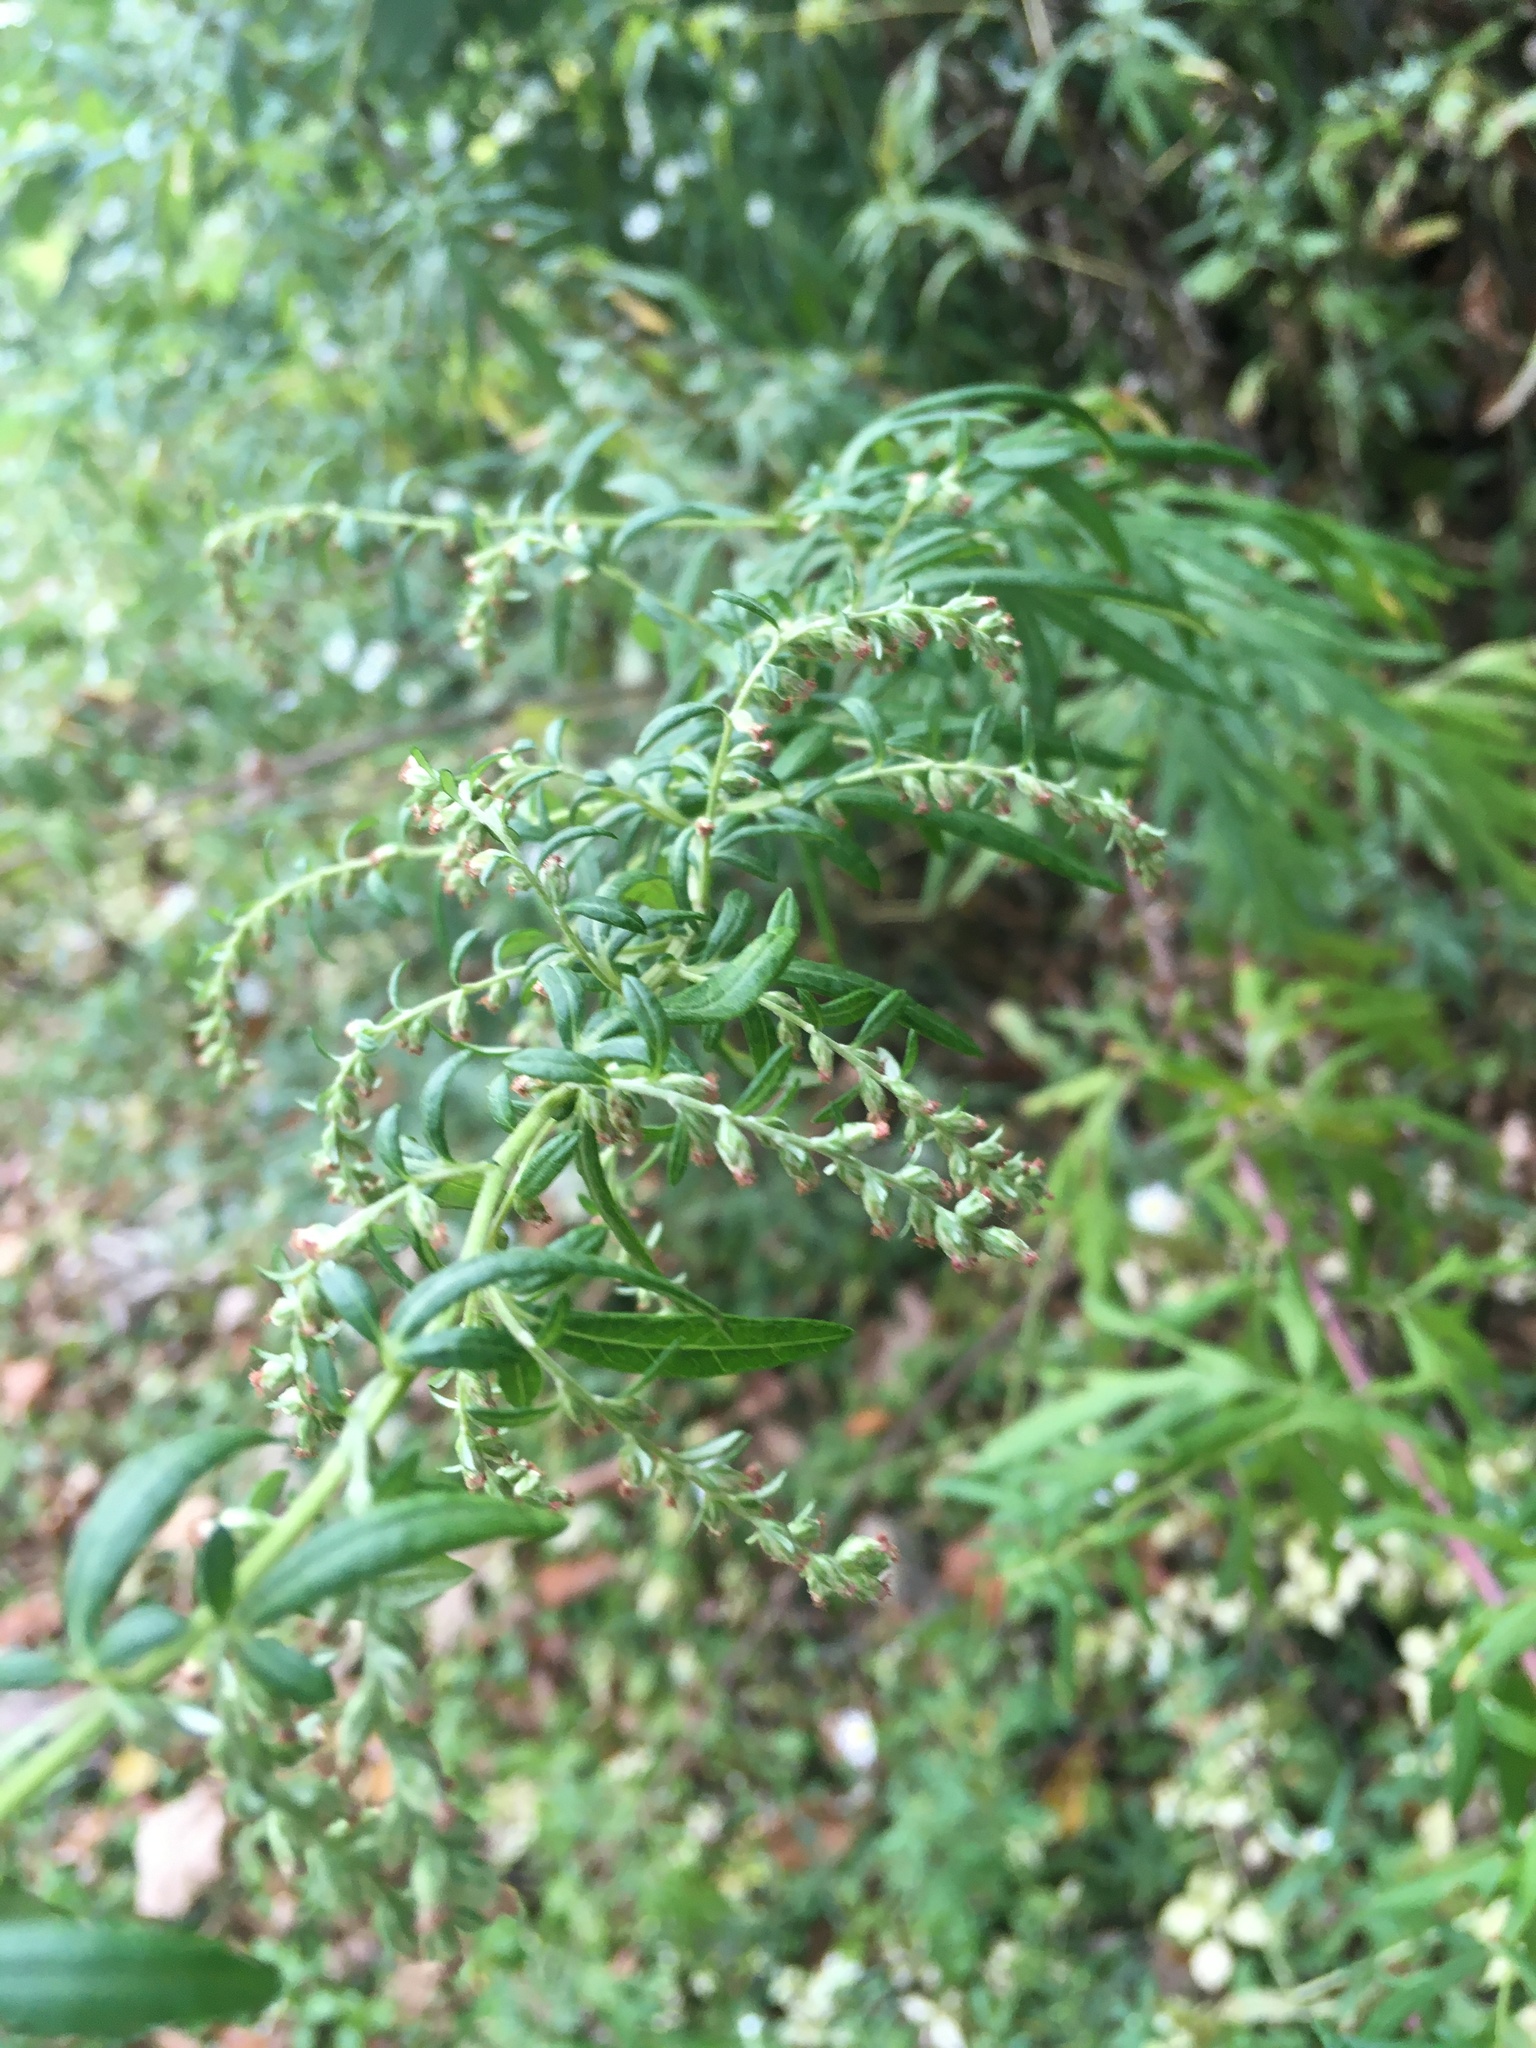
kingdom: Plantae
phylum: Tracheophyta
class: Magnoliopsida
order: Asterales
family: Asteraceae
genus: Artemisia
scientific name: Artemisia vulgaris
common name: Mugwort
